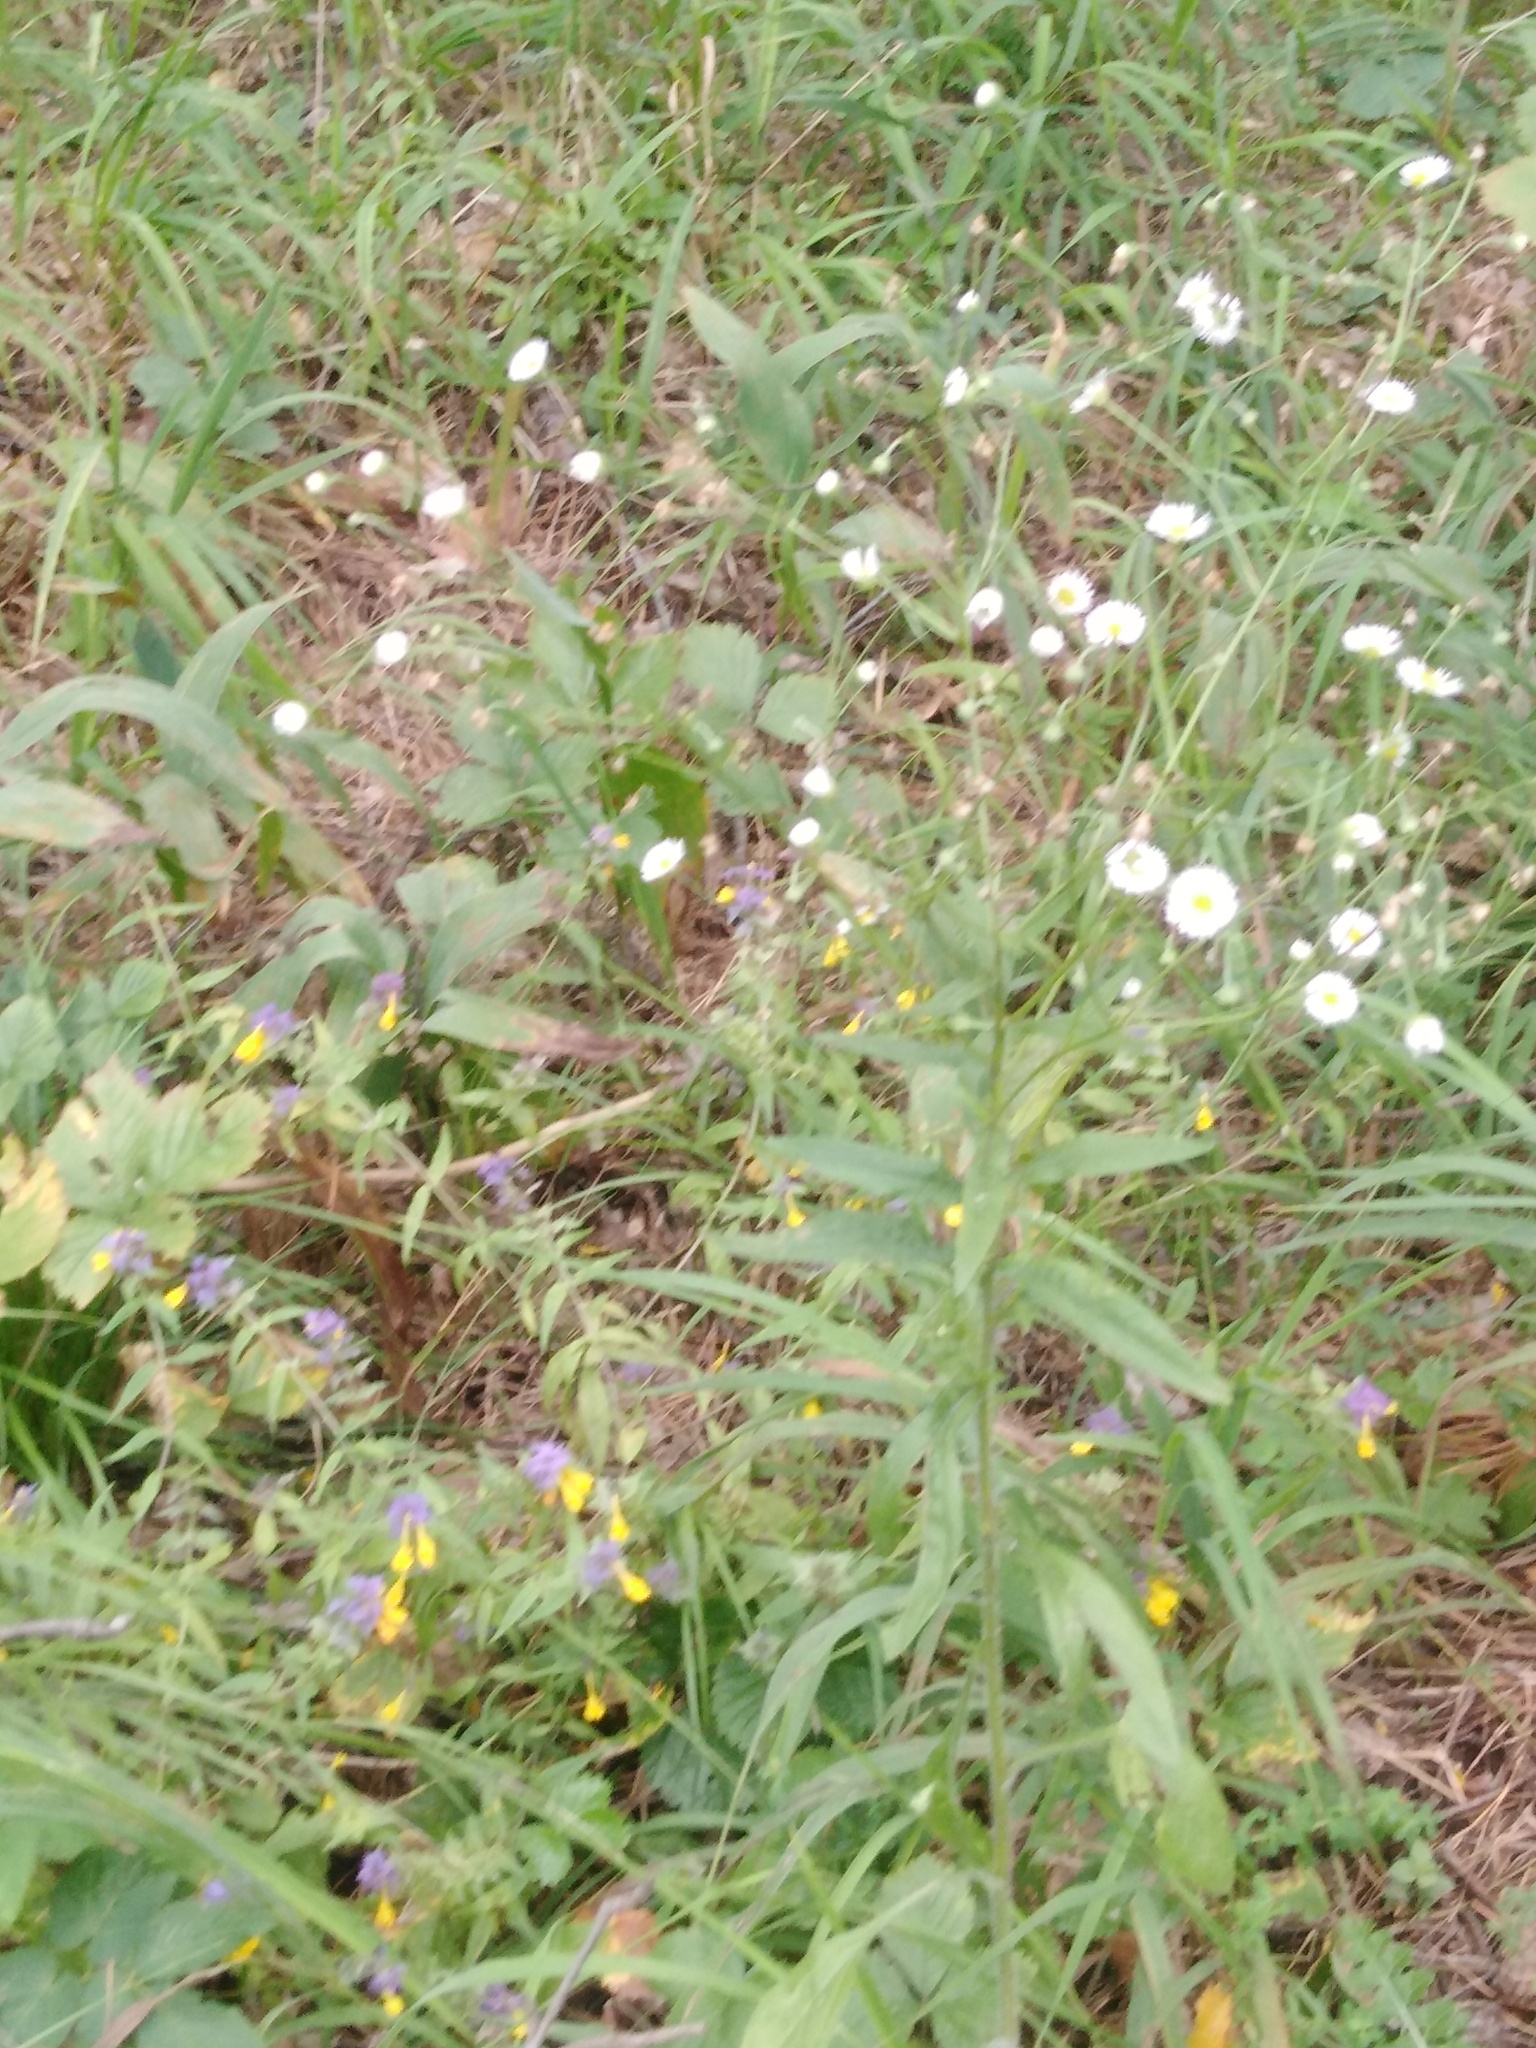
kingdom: Plantae
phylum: Tracheophyta
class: Magnoliopsida
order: Asterales
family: Asteraceae
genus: Erigeron
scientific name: Erigeron annuus
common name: Tall fleabane
